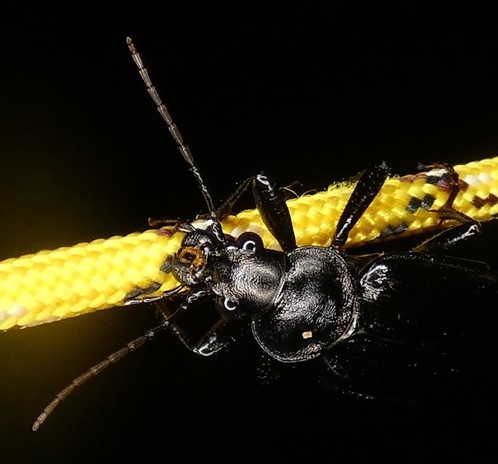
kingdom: Animalia
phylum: Arthropoda
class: Insecta
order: Coleoptera
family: Carabidae
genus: Calosoma
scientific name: Calosoma sayi
